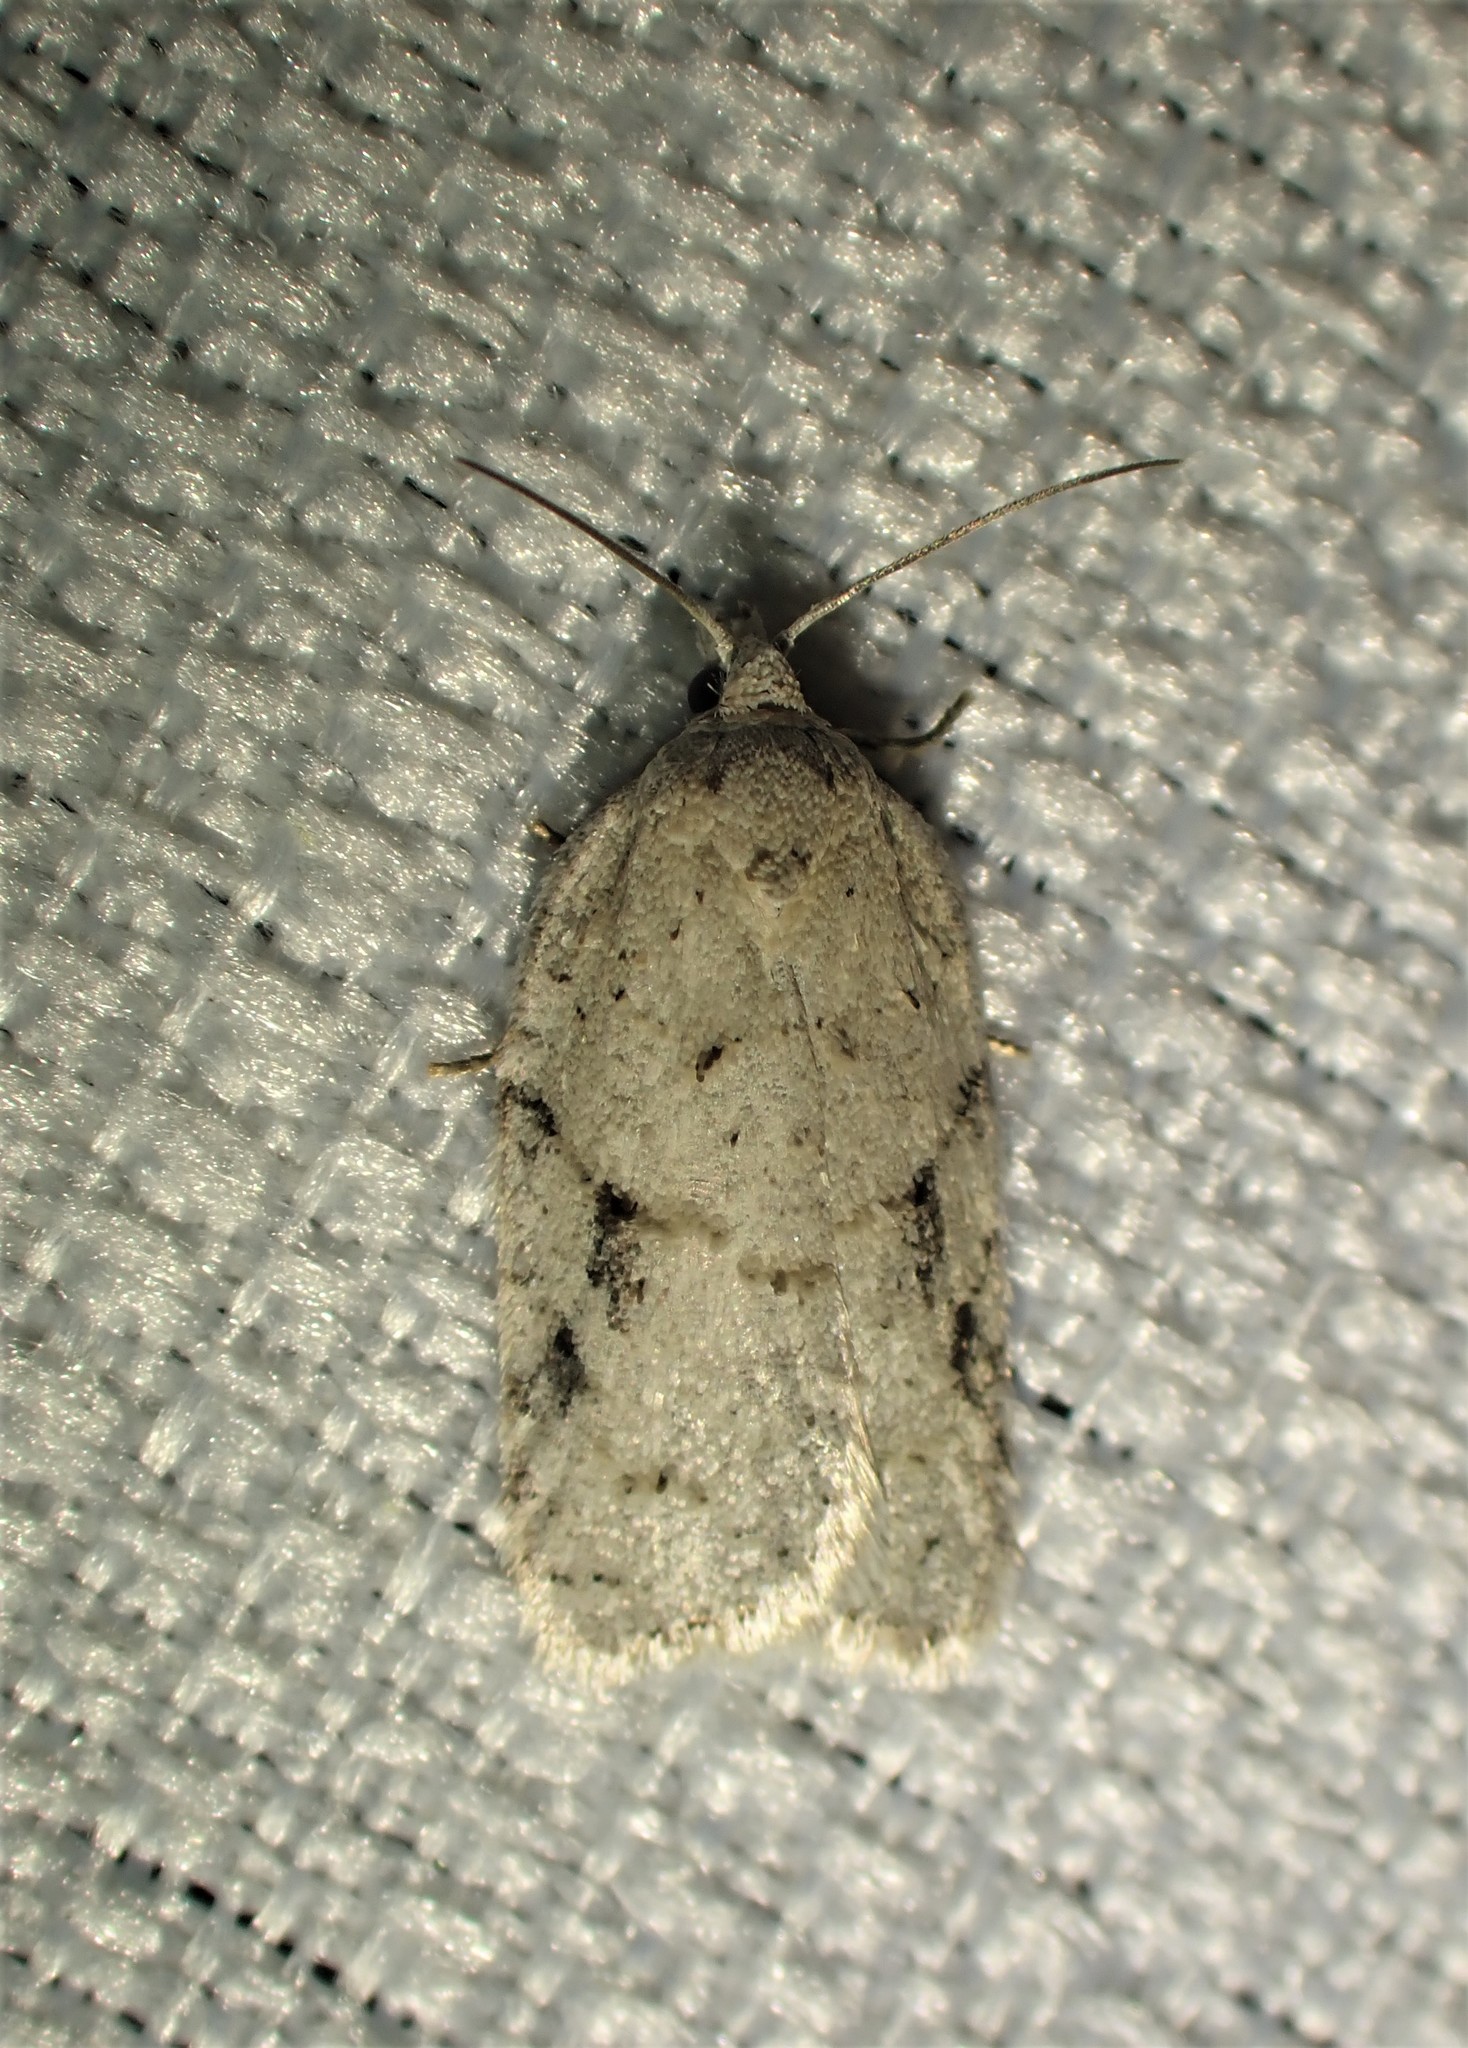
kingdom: Animalia
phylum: Arthropoda
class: Insecta
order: Lepidoptera
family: Tortricidae
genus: Acleris
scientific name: Acleris placidana
